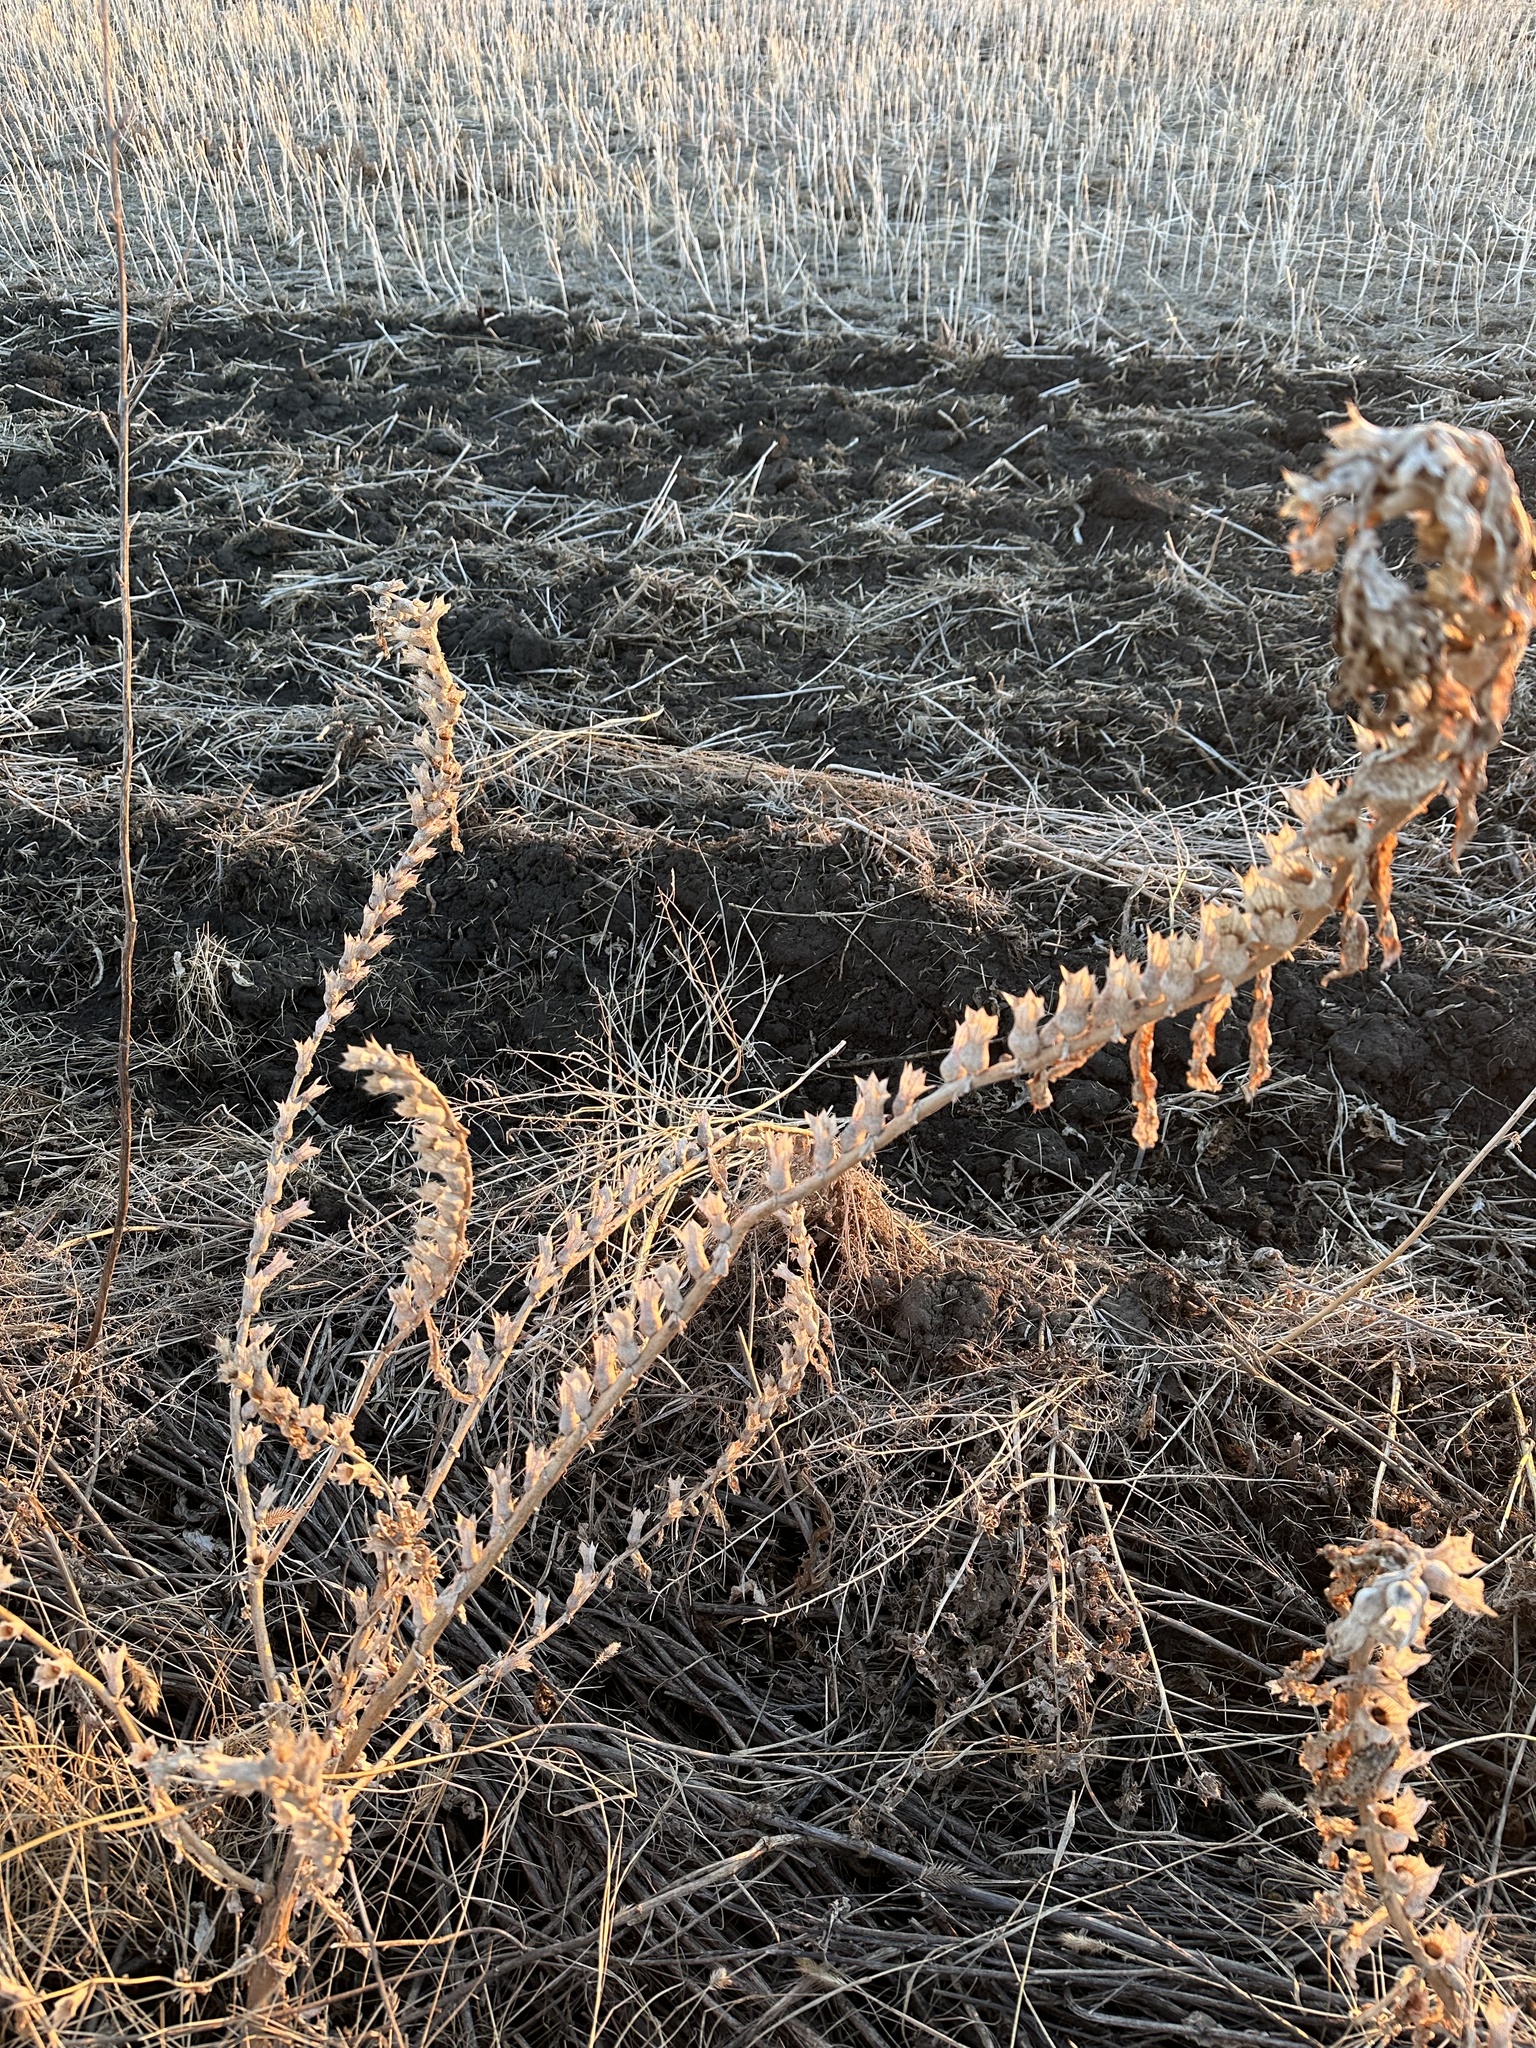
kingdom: Plantae
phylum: Tracheophyta
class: Magnoliopsida
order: Solanales
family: Solanaceae
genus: Hyoscyamus
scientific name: Hyoscyamus niger
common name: Henbane
